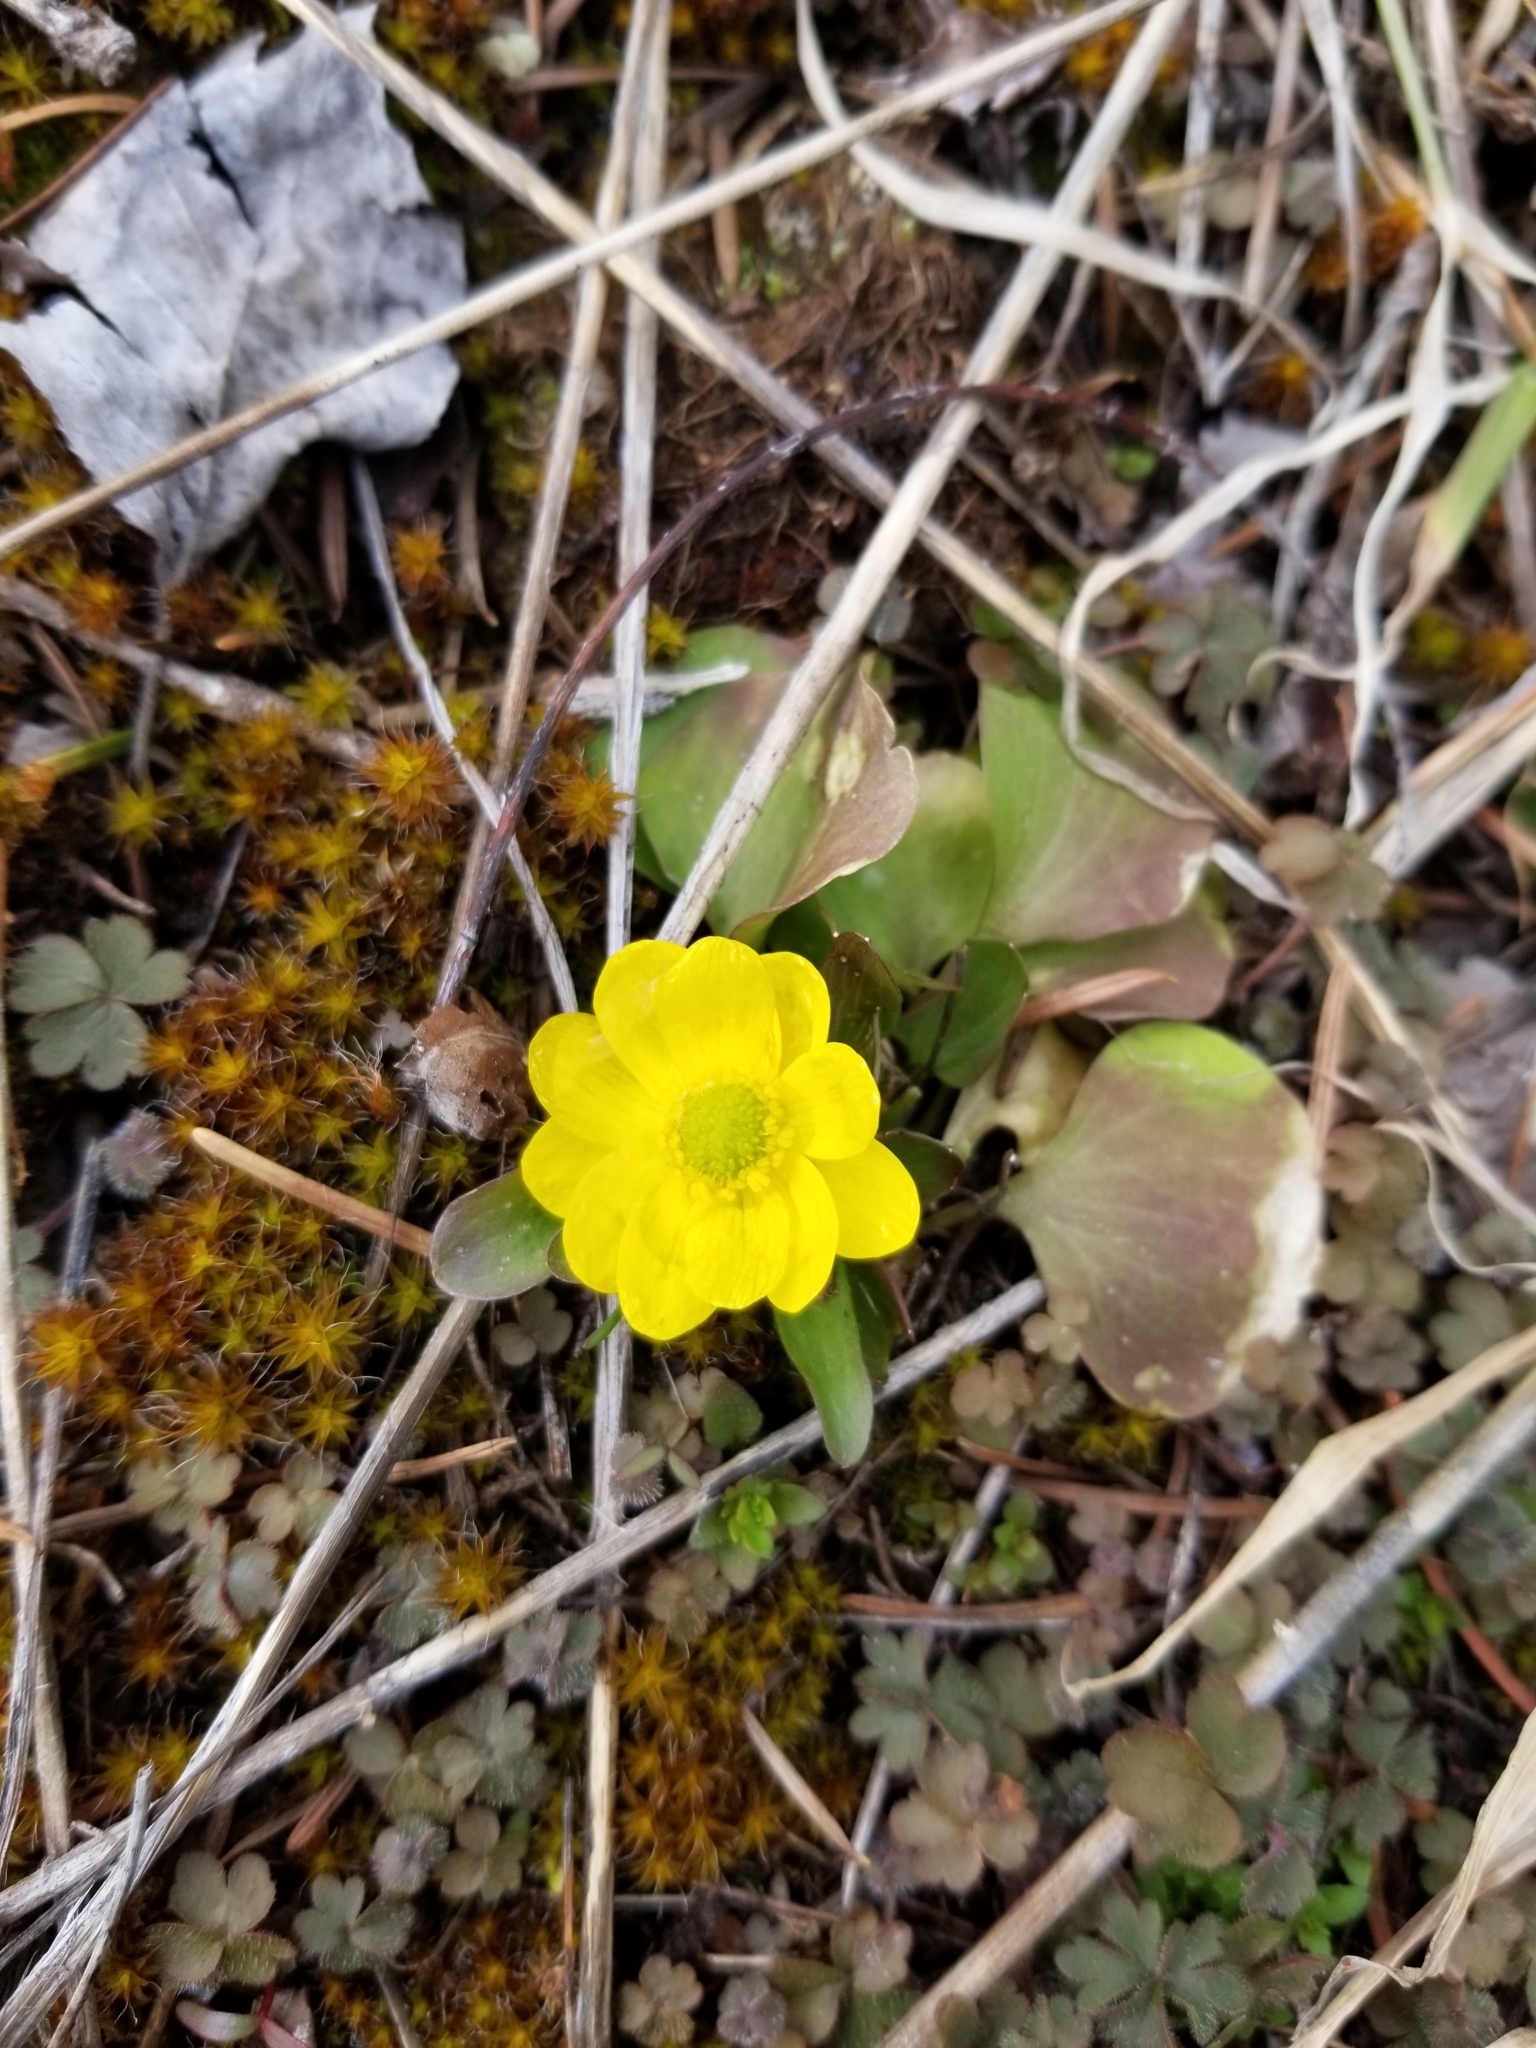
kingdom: Plantae
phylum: Tracheophyta
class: Magnoliopsida
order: Ranunculales
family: Ranunculaceae
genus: Ranunculus
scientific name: Ranunculus glaberrimus
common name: Sagebrush buttercup
